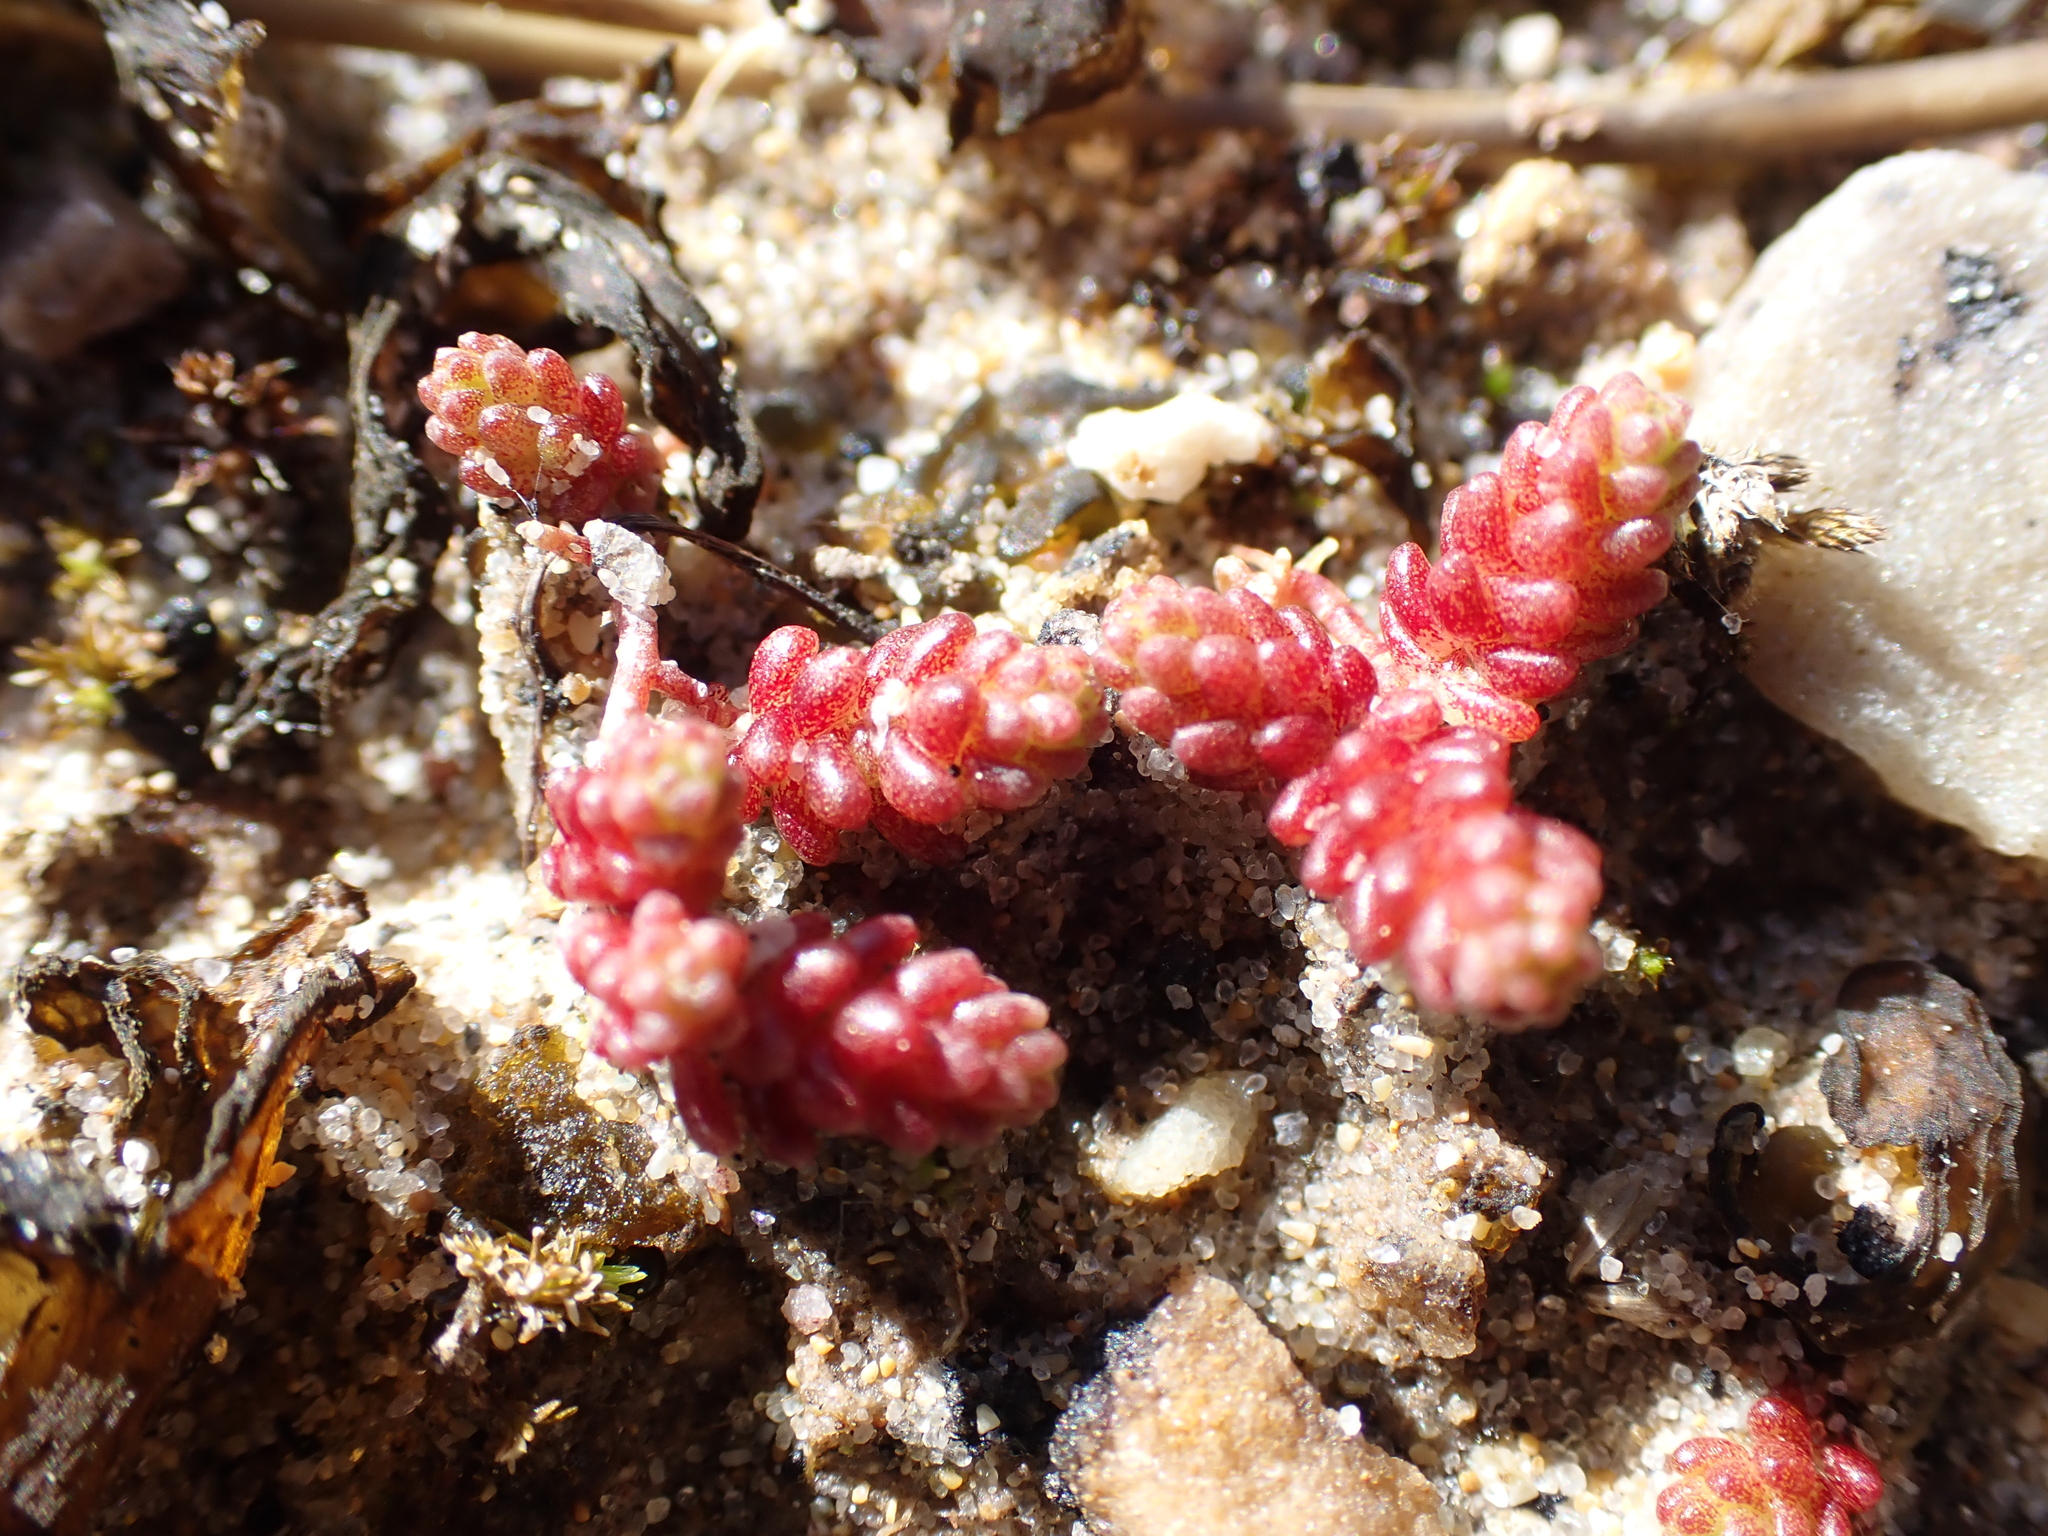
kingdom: Plantae
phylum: Tracheophyta
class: Magnoliopsida
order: Saxifragales
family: Crassulaceae
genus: Sedum
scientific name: Sedum acre
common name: Biting stonecrop
